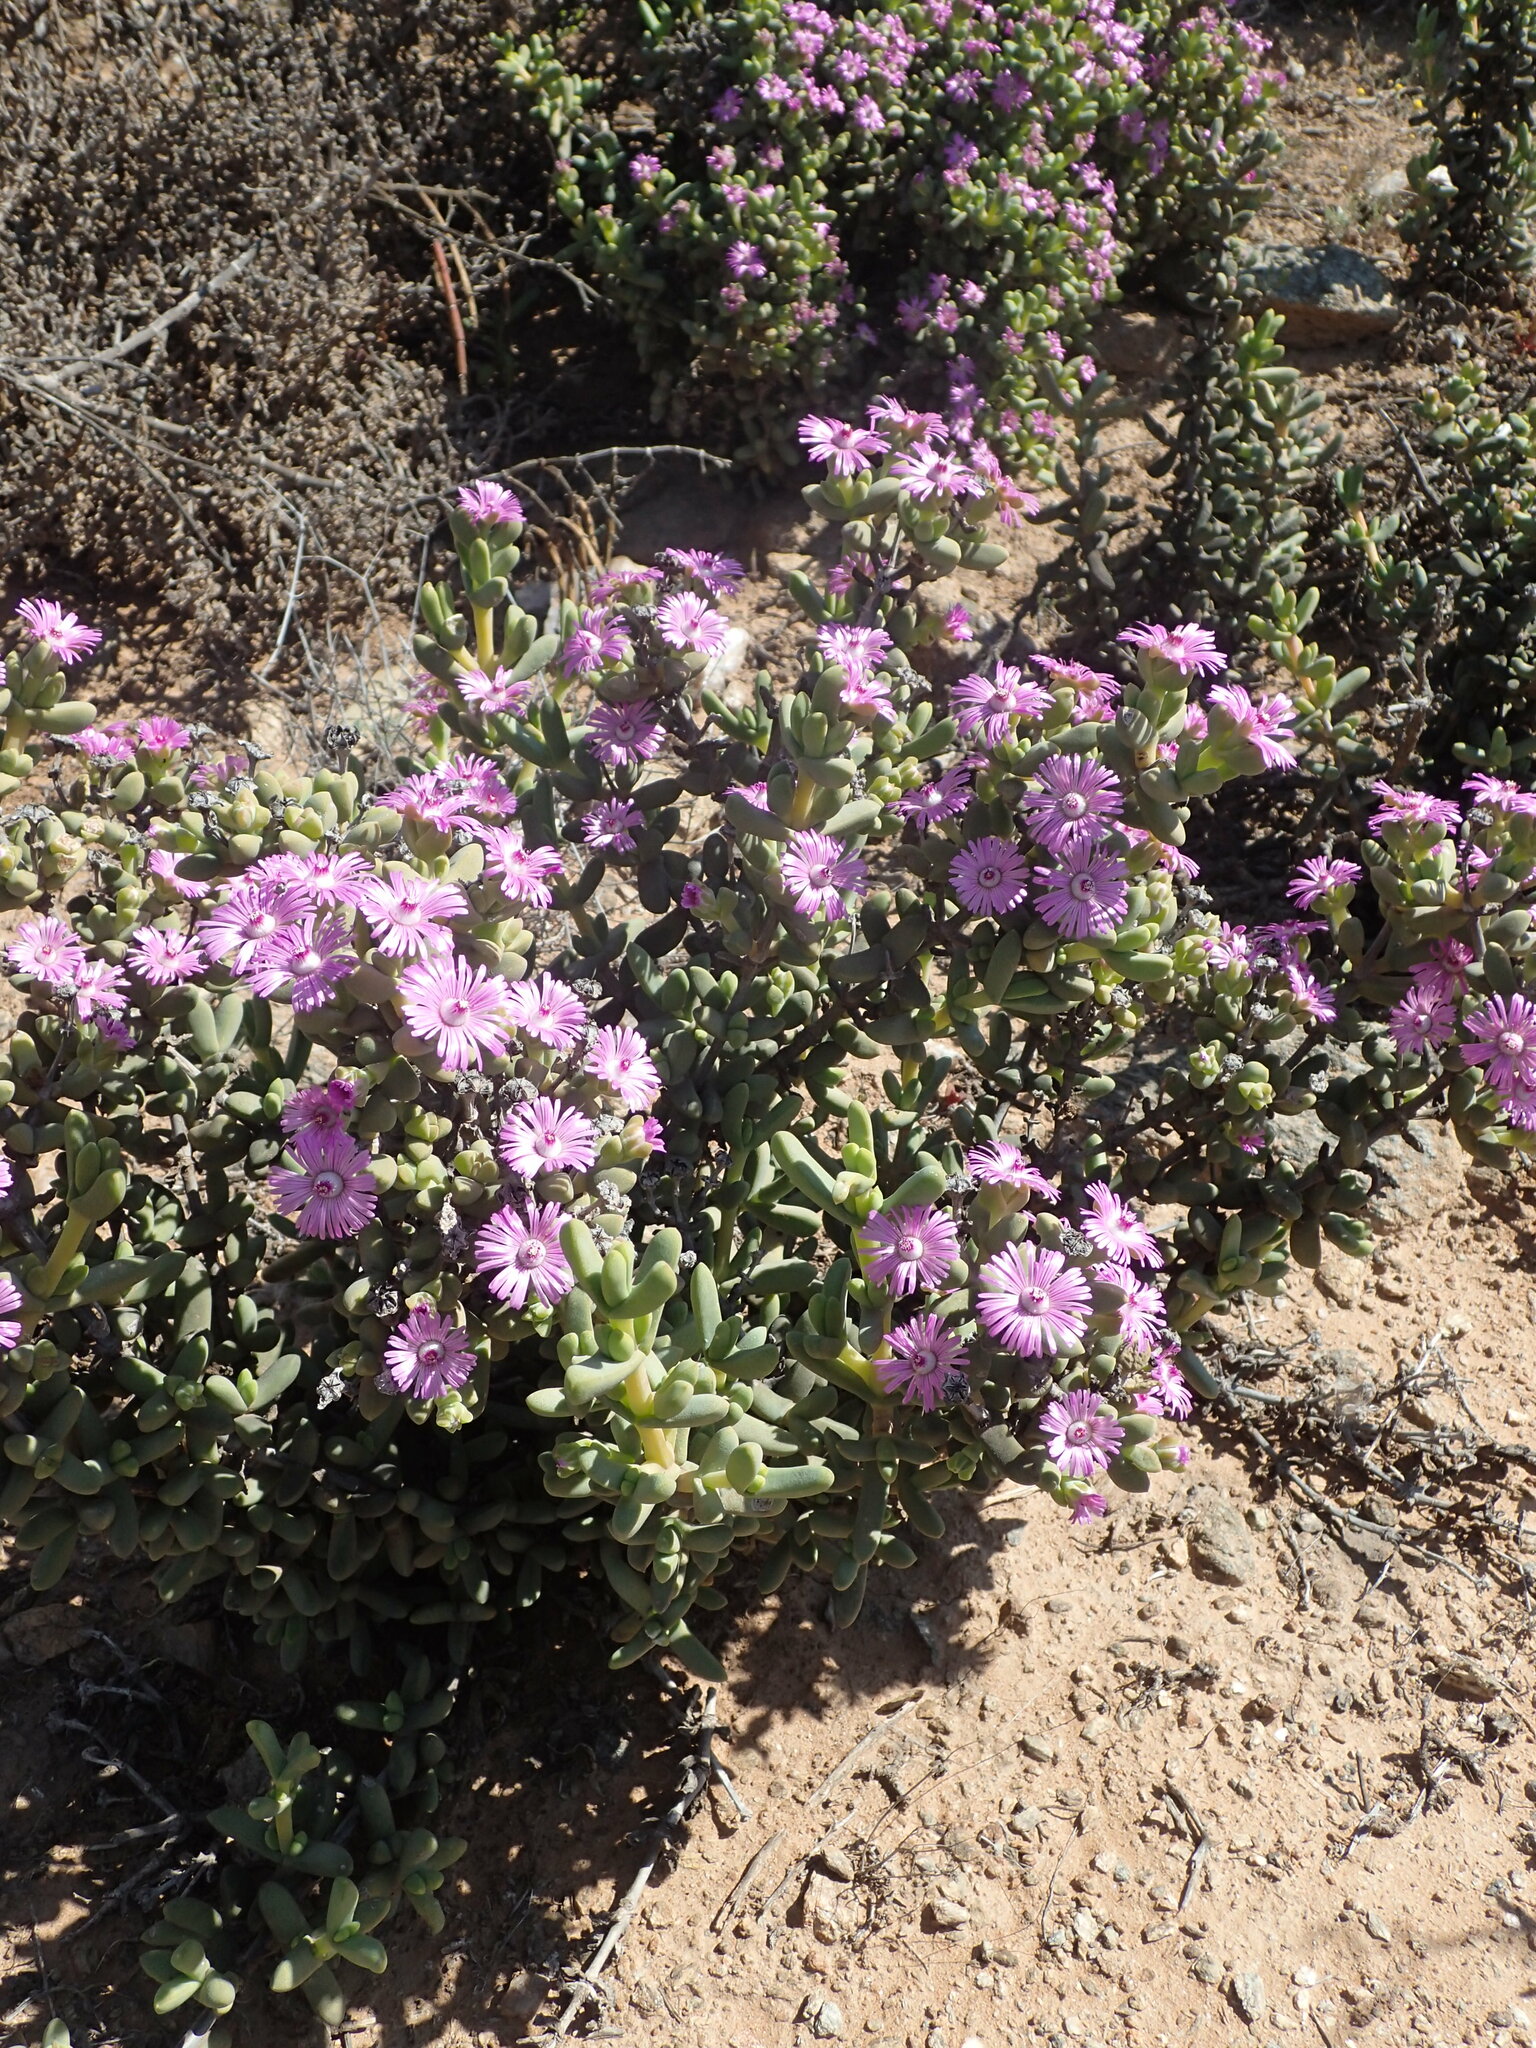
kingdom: Plantae
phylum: Tracheophyta
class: Magnoliopsida
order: Caryophyllales
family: Aizoaceae
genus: Ruschia
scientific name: Ruschia aggregata
